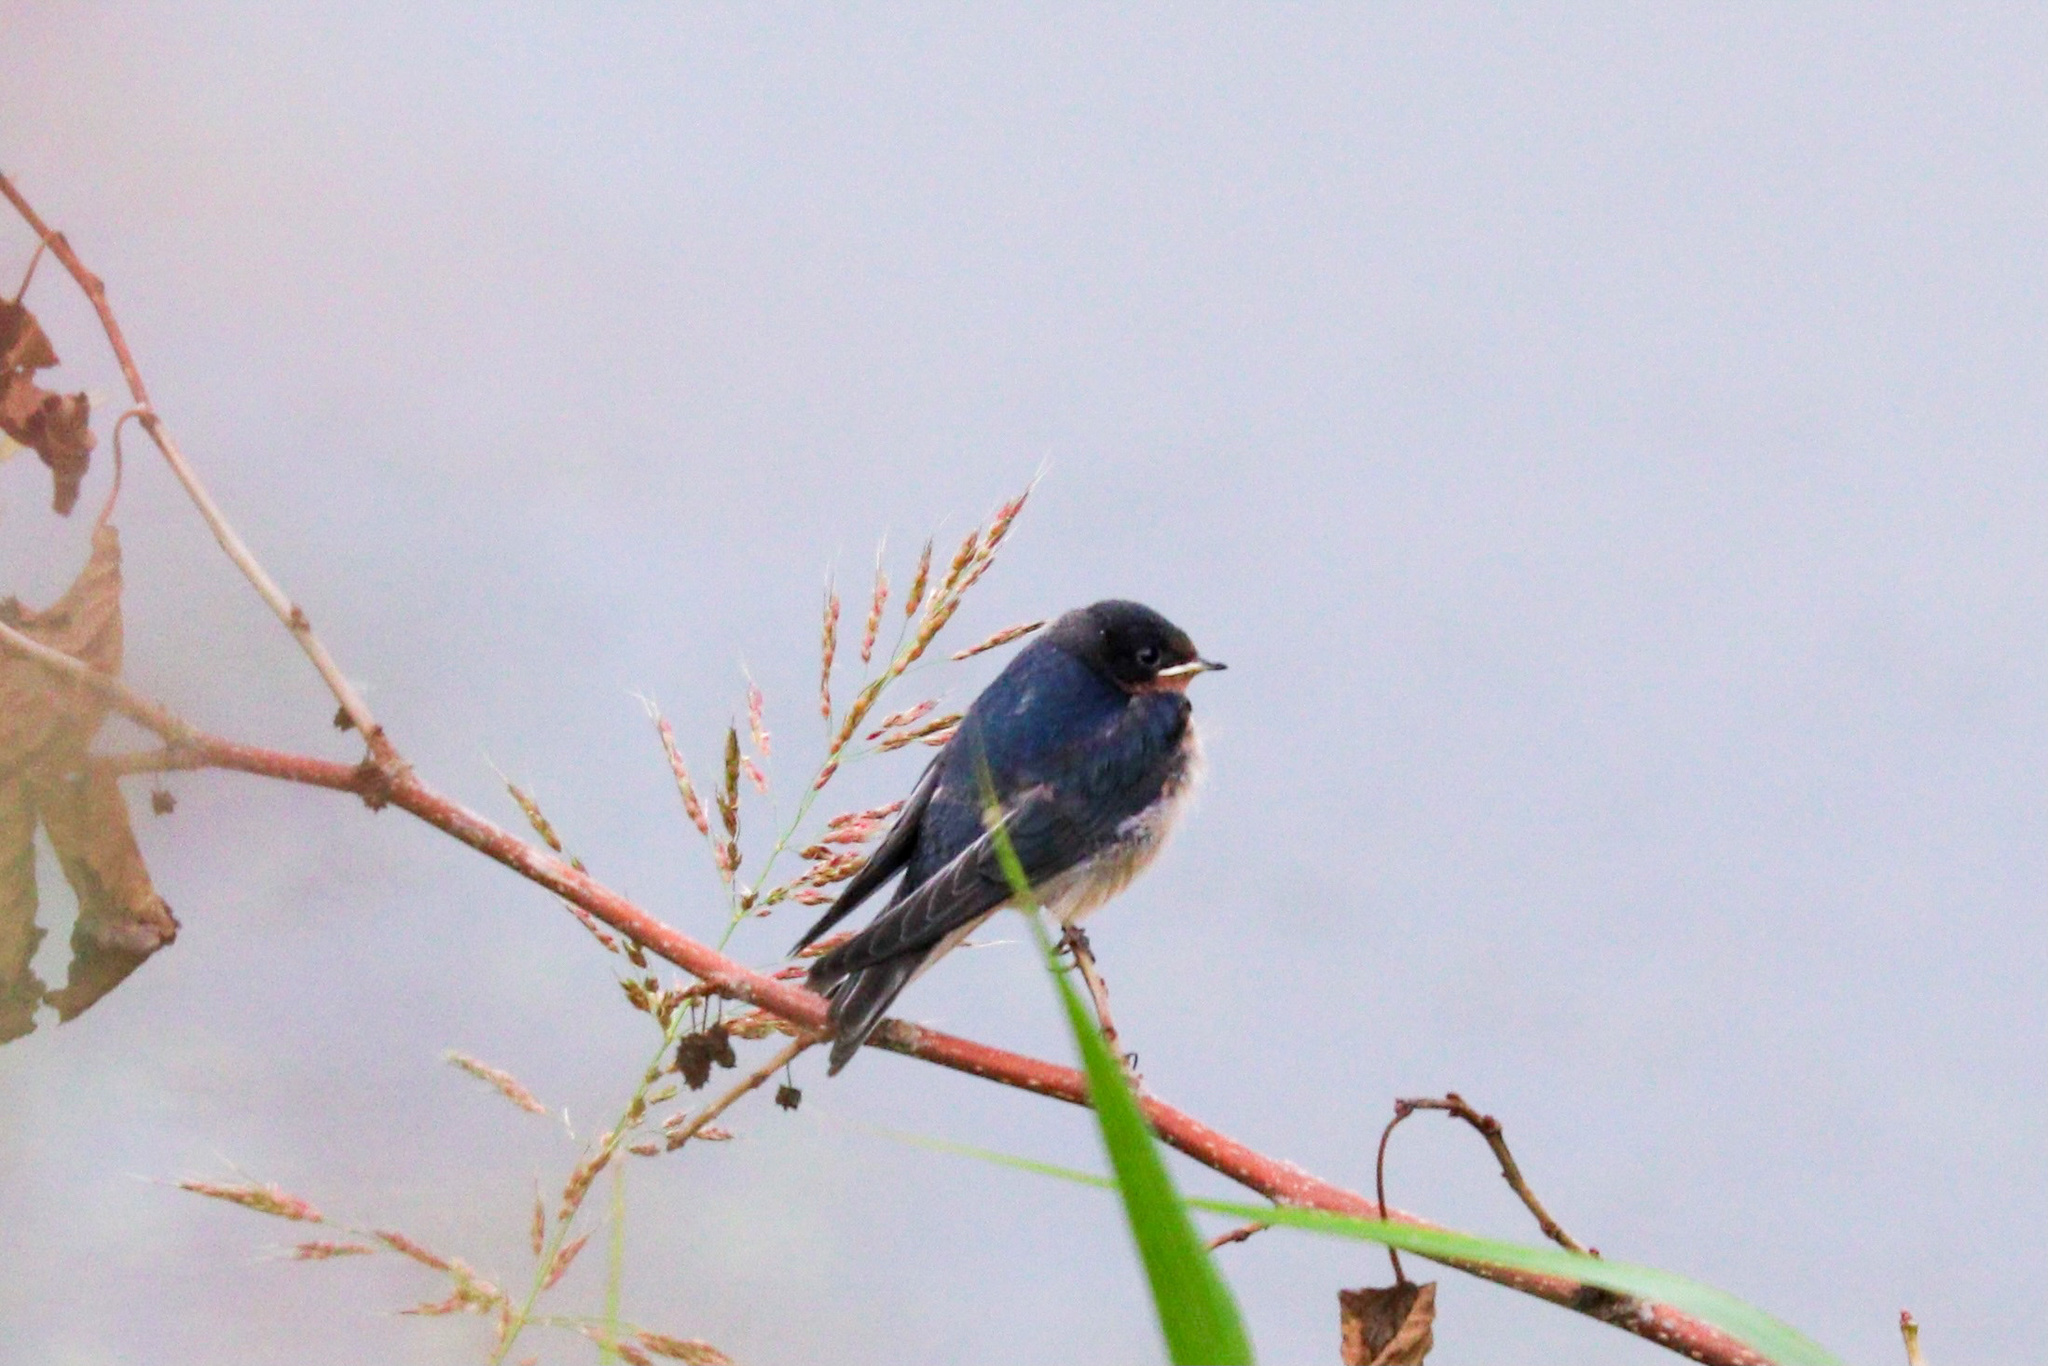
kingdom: Animalia
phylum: Chordata
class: Aves
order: Passeriformes
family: Hirundinidae
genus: Hirundo
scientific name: Hirundo rustica
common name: Barn swallow
